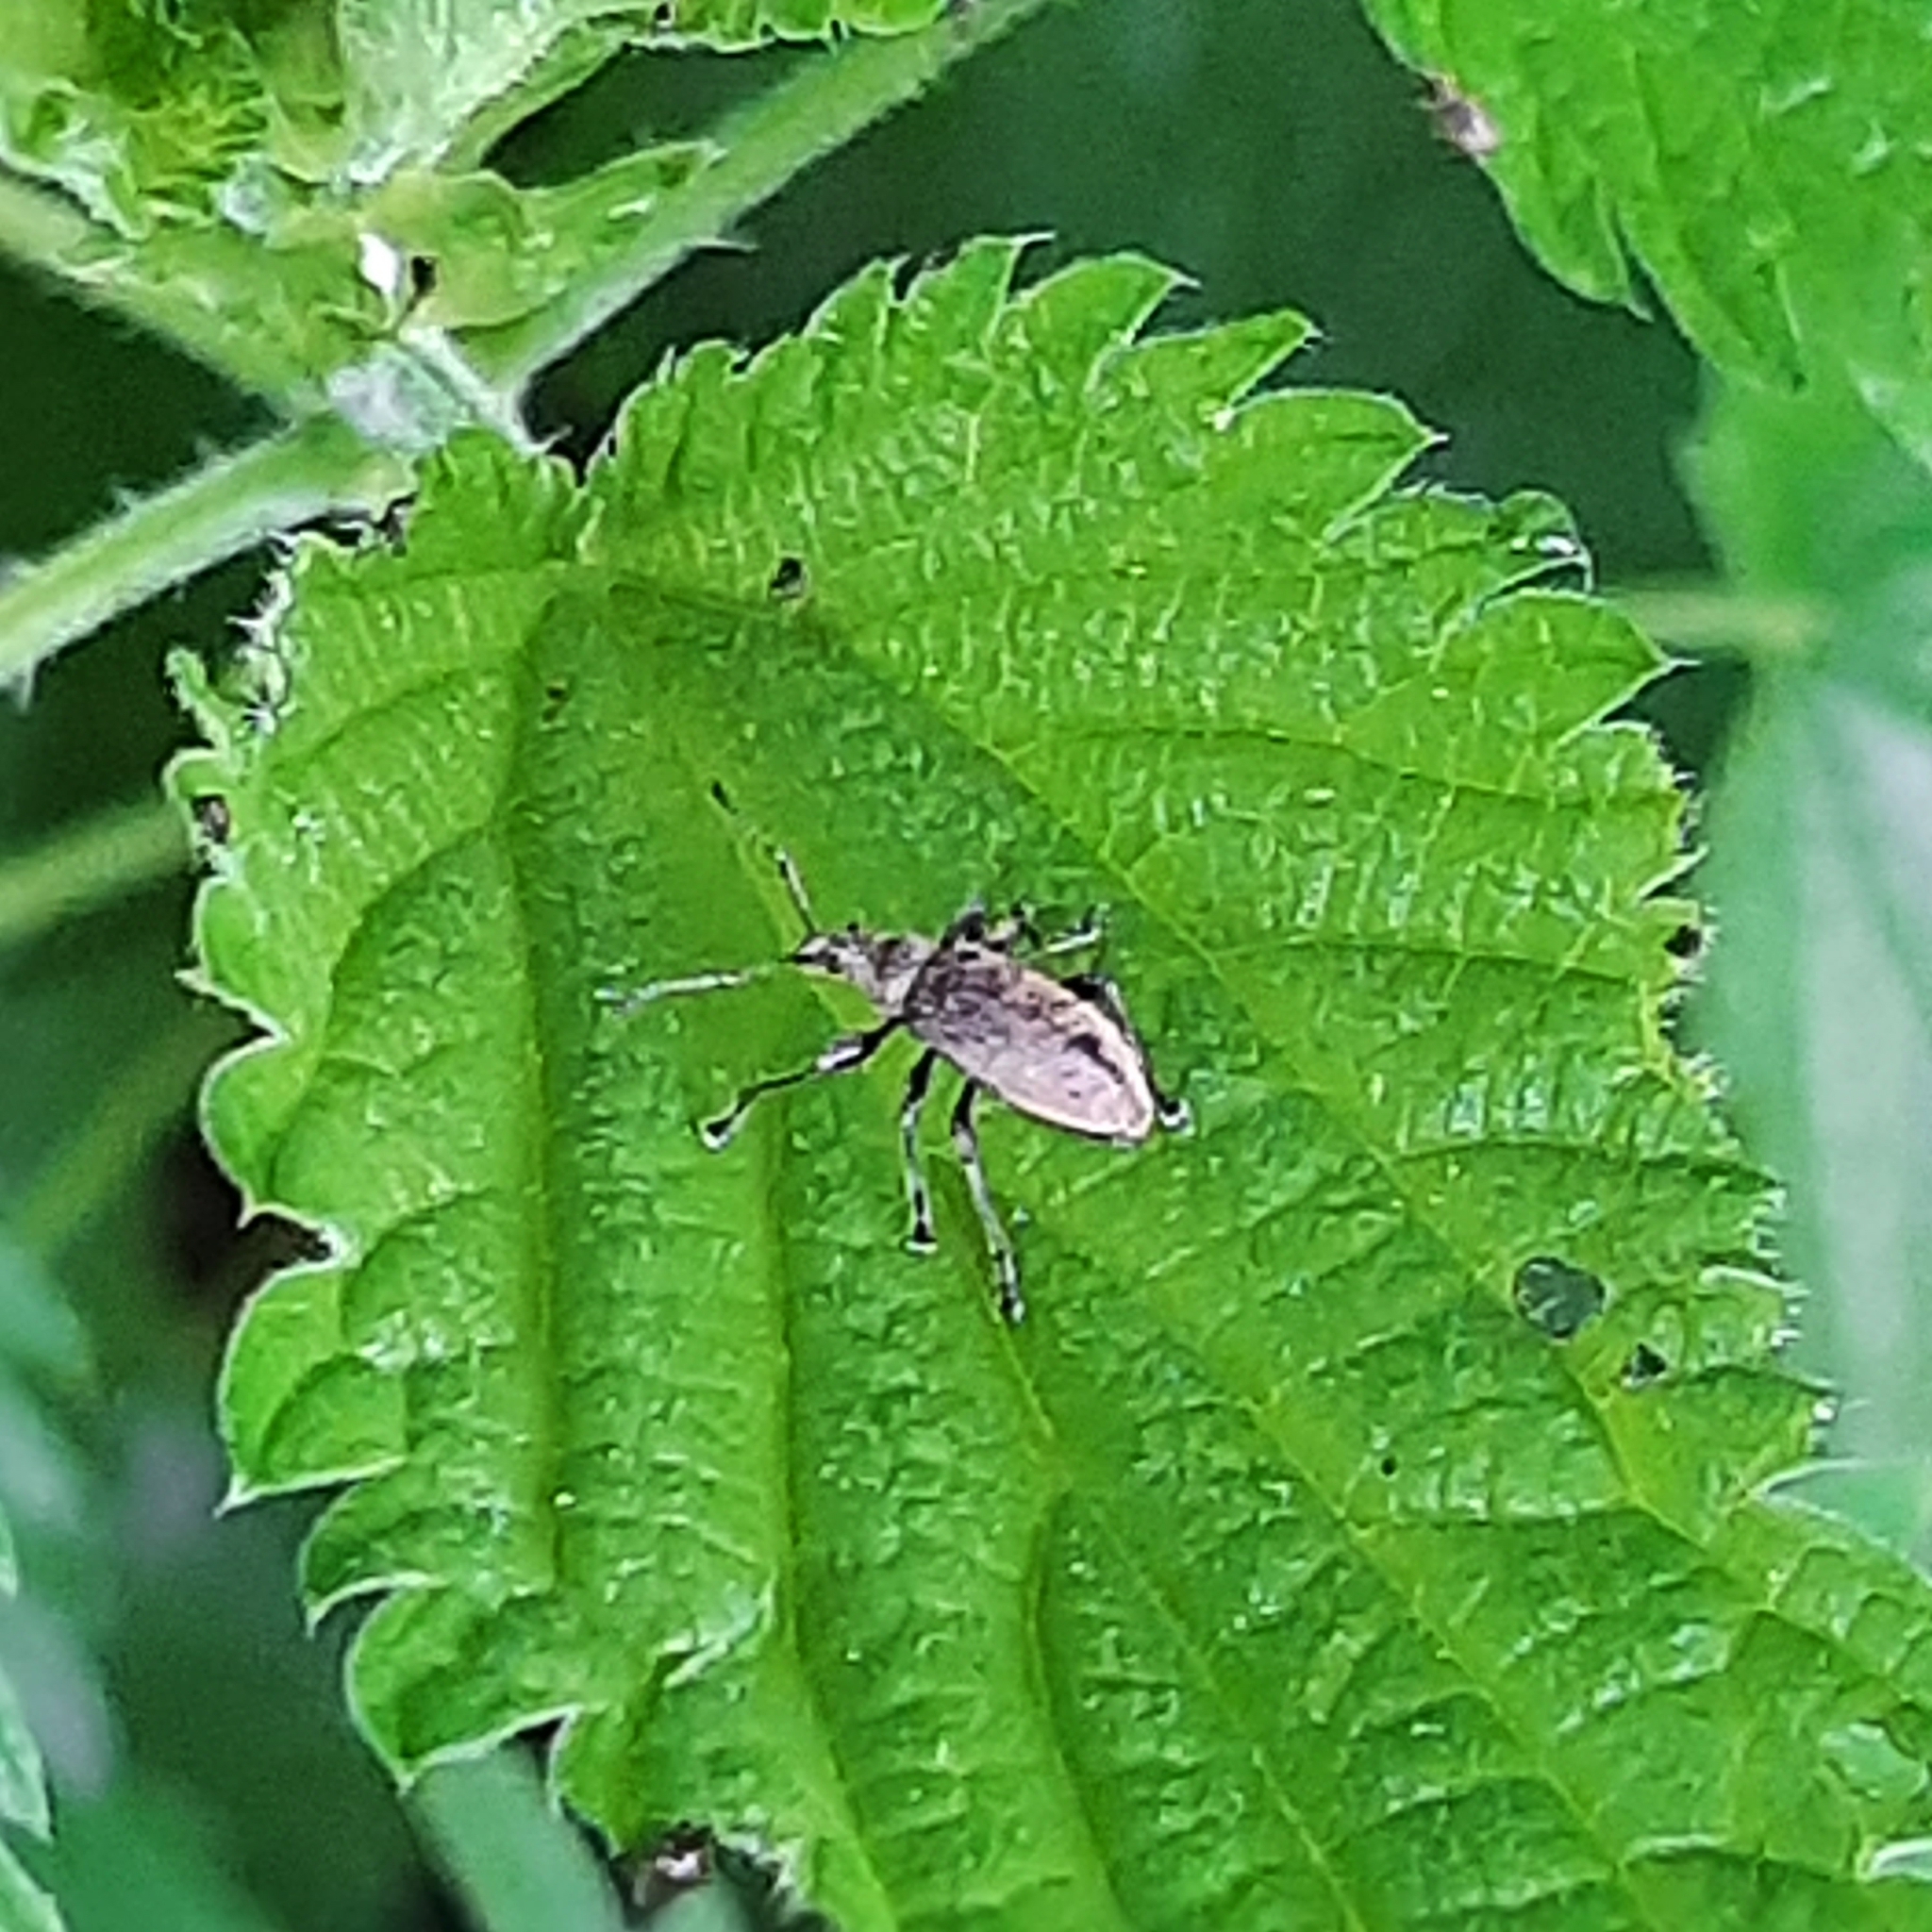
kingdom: Animalia
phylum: Arthropoda
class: Insecta
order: Coleoptera
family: Curculionidae
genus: Phyllobius
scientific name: Phyllobius pomaceus
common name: Green nettle weevil
